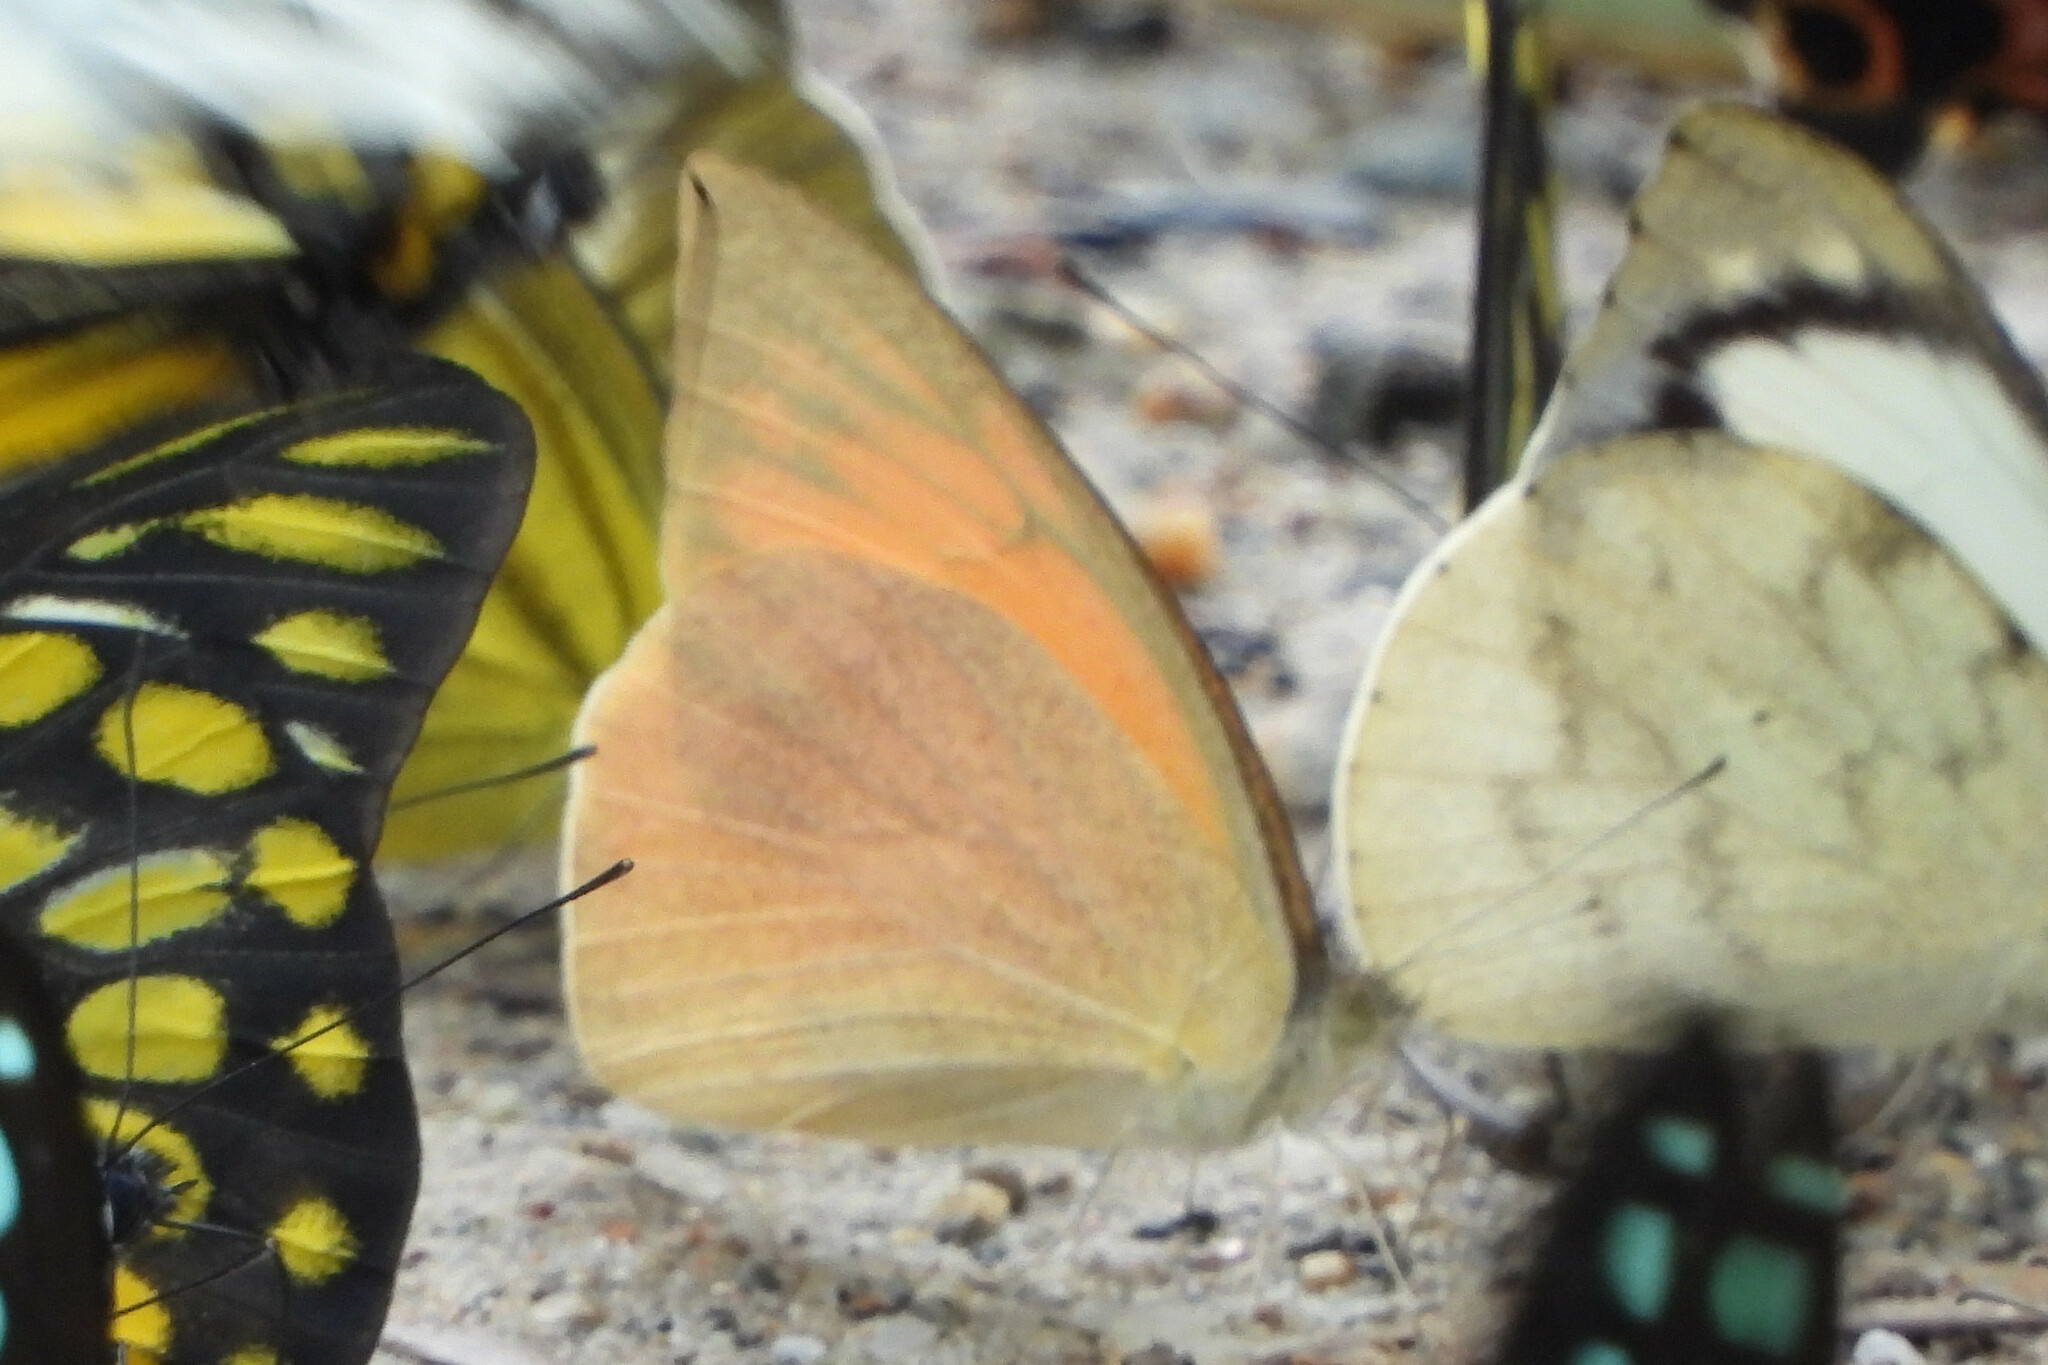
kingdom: Animalia
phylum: Arthropoda
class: Insecta
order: Lepidoptera
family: Pieridae
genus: Appias
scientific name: Appias galba
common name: Indian orange albatross
